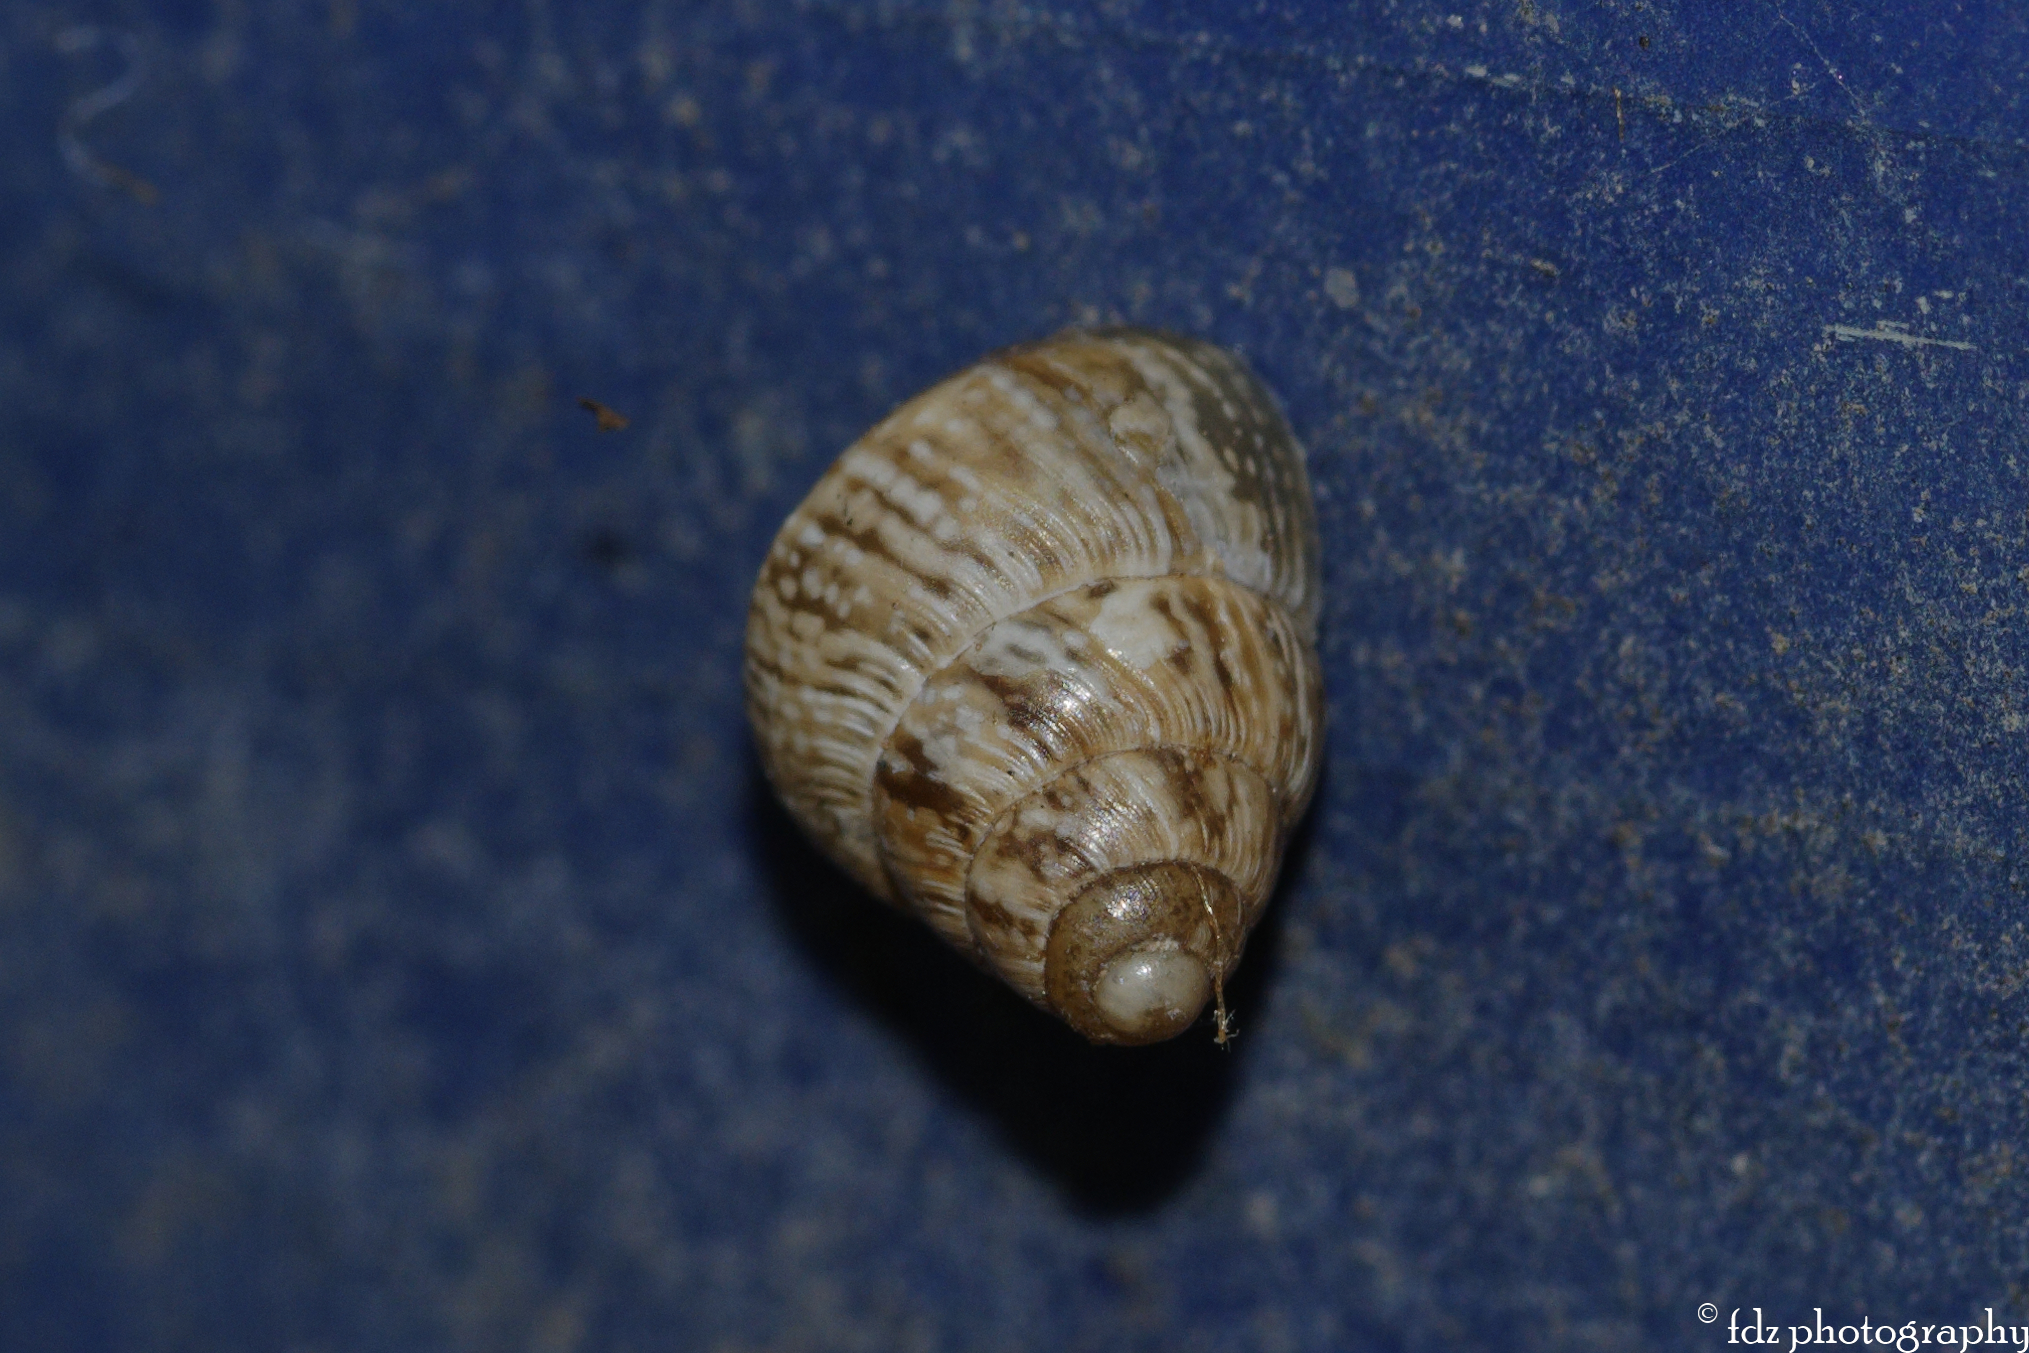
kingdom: Animalia
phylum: Mollusca
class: Gastropoda
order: Stylommatophora
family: Geomitridae
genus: Cochlicella
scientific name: Cochlicella barbara
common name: Potbellied helicellid
